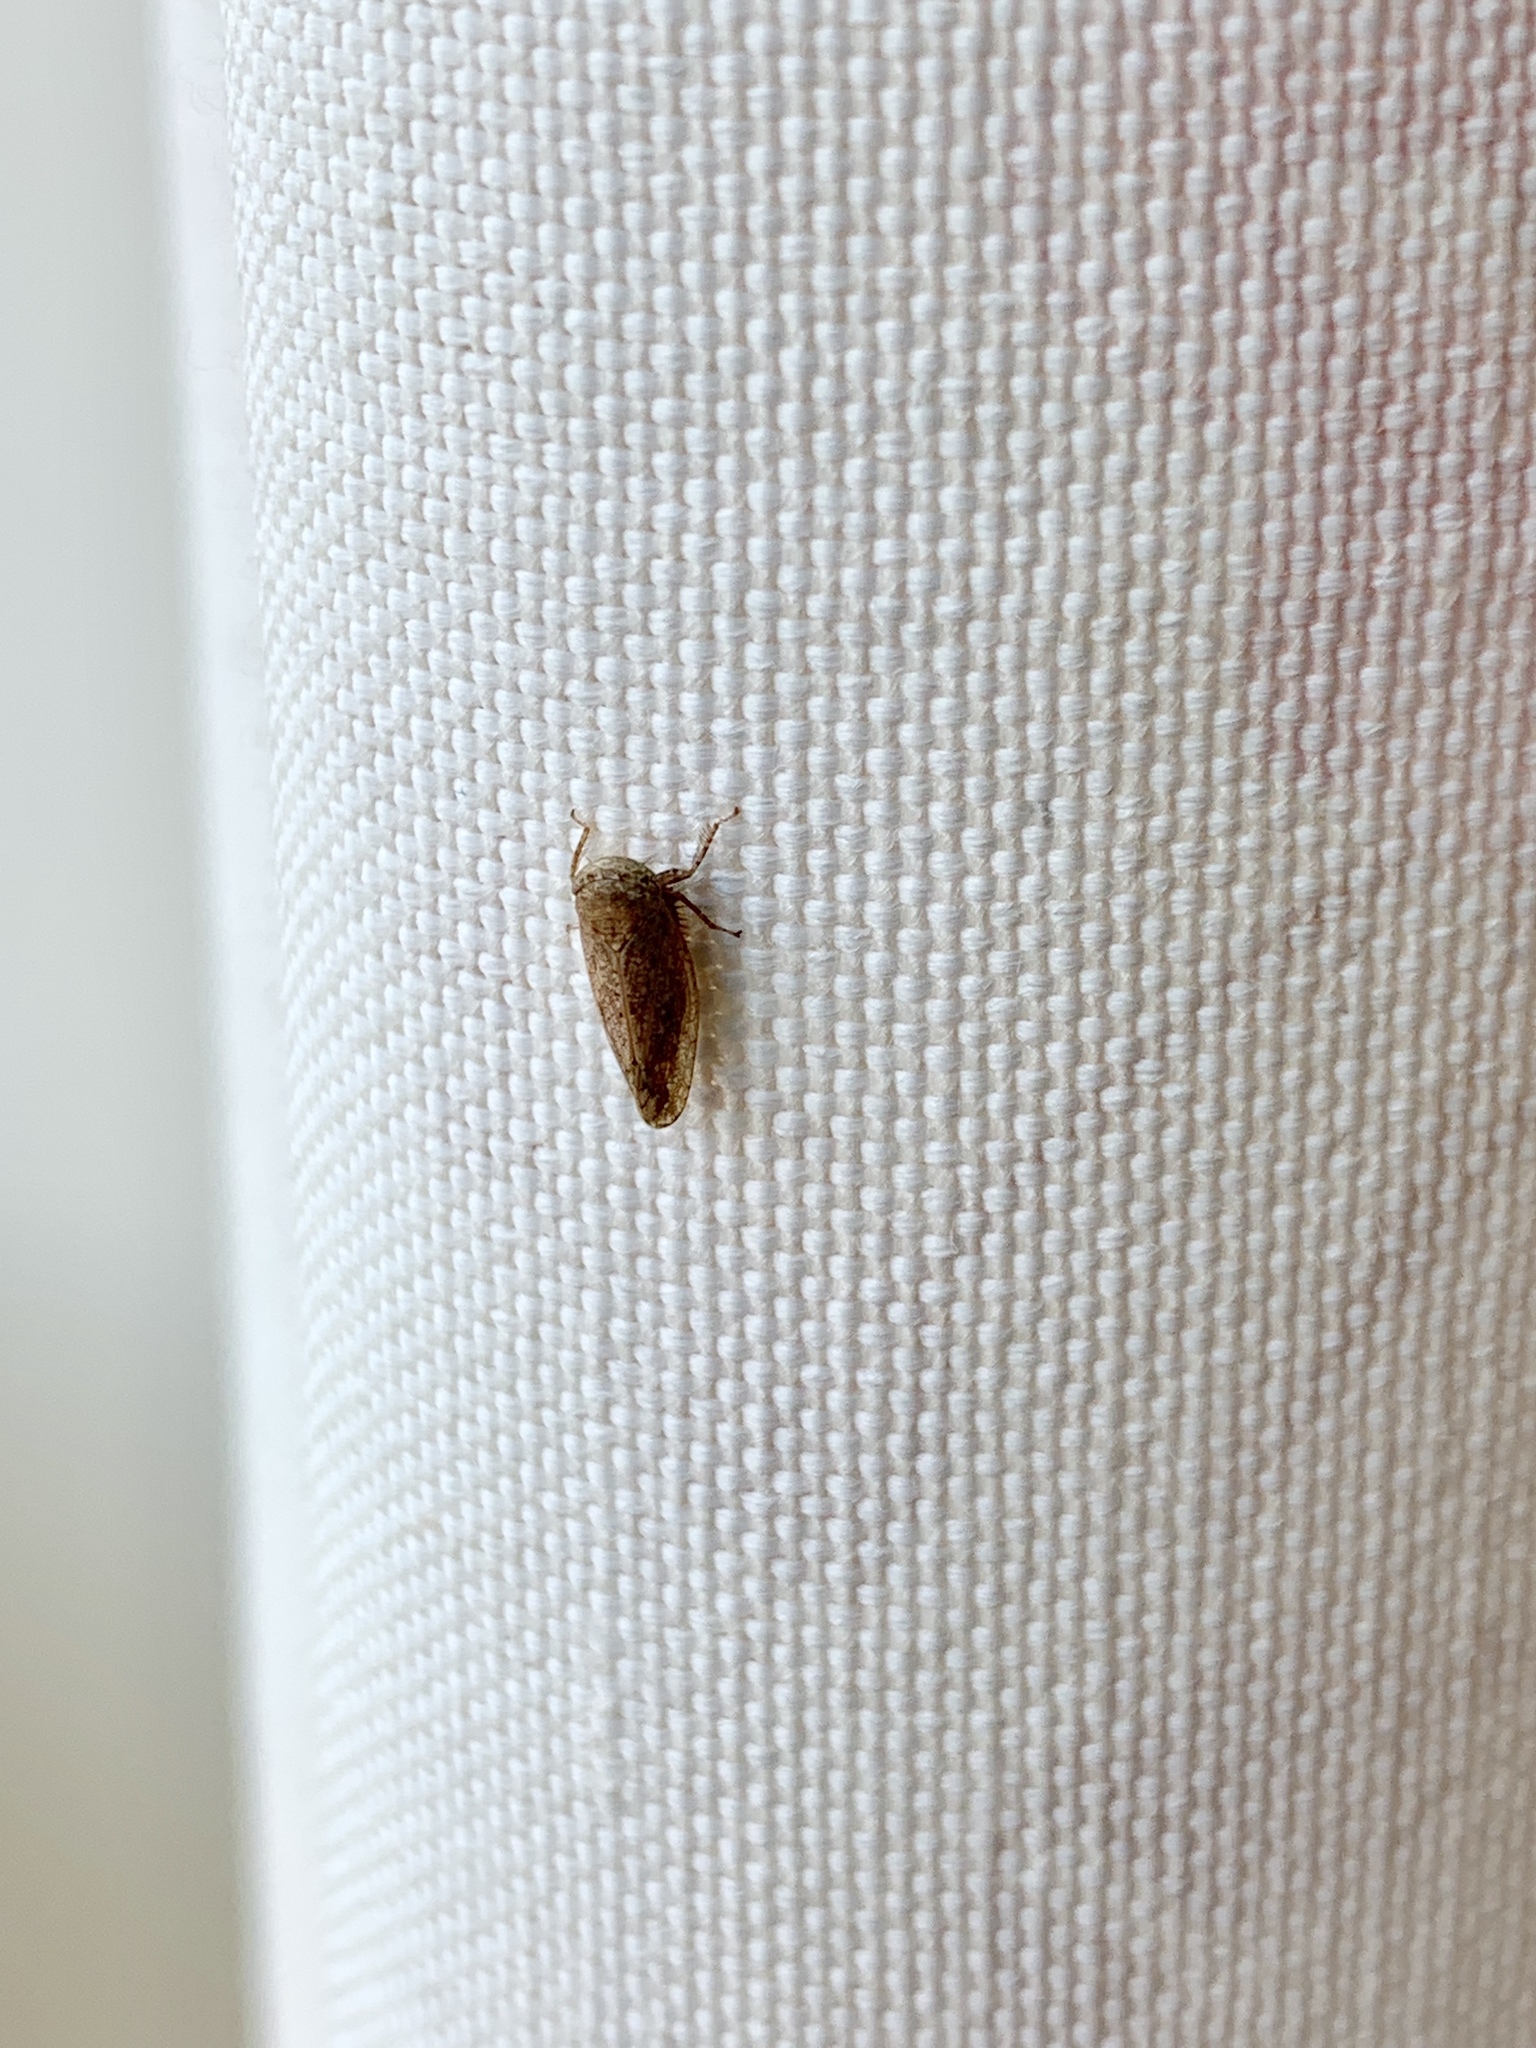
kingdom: Animalia
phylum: Arthropoda
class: Insecta
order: Hemiptera
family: Cicadellidae
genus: Paraphlepsius
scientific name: Paraphlepsius continuus
